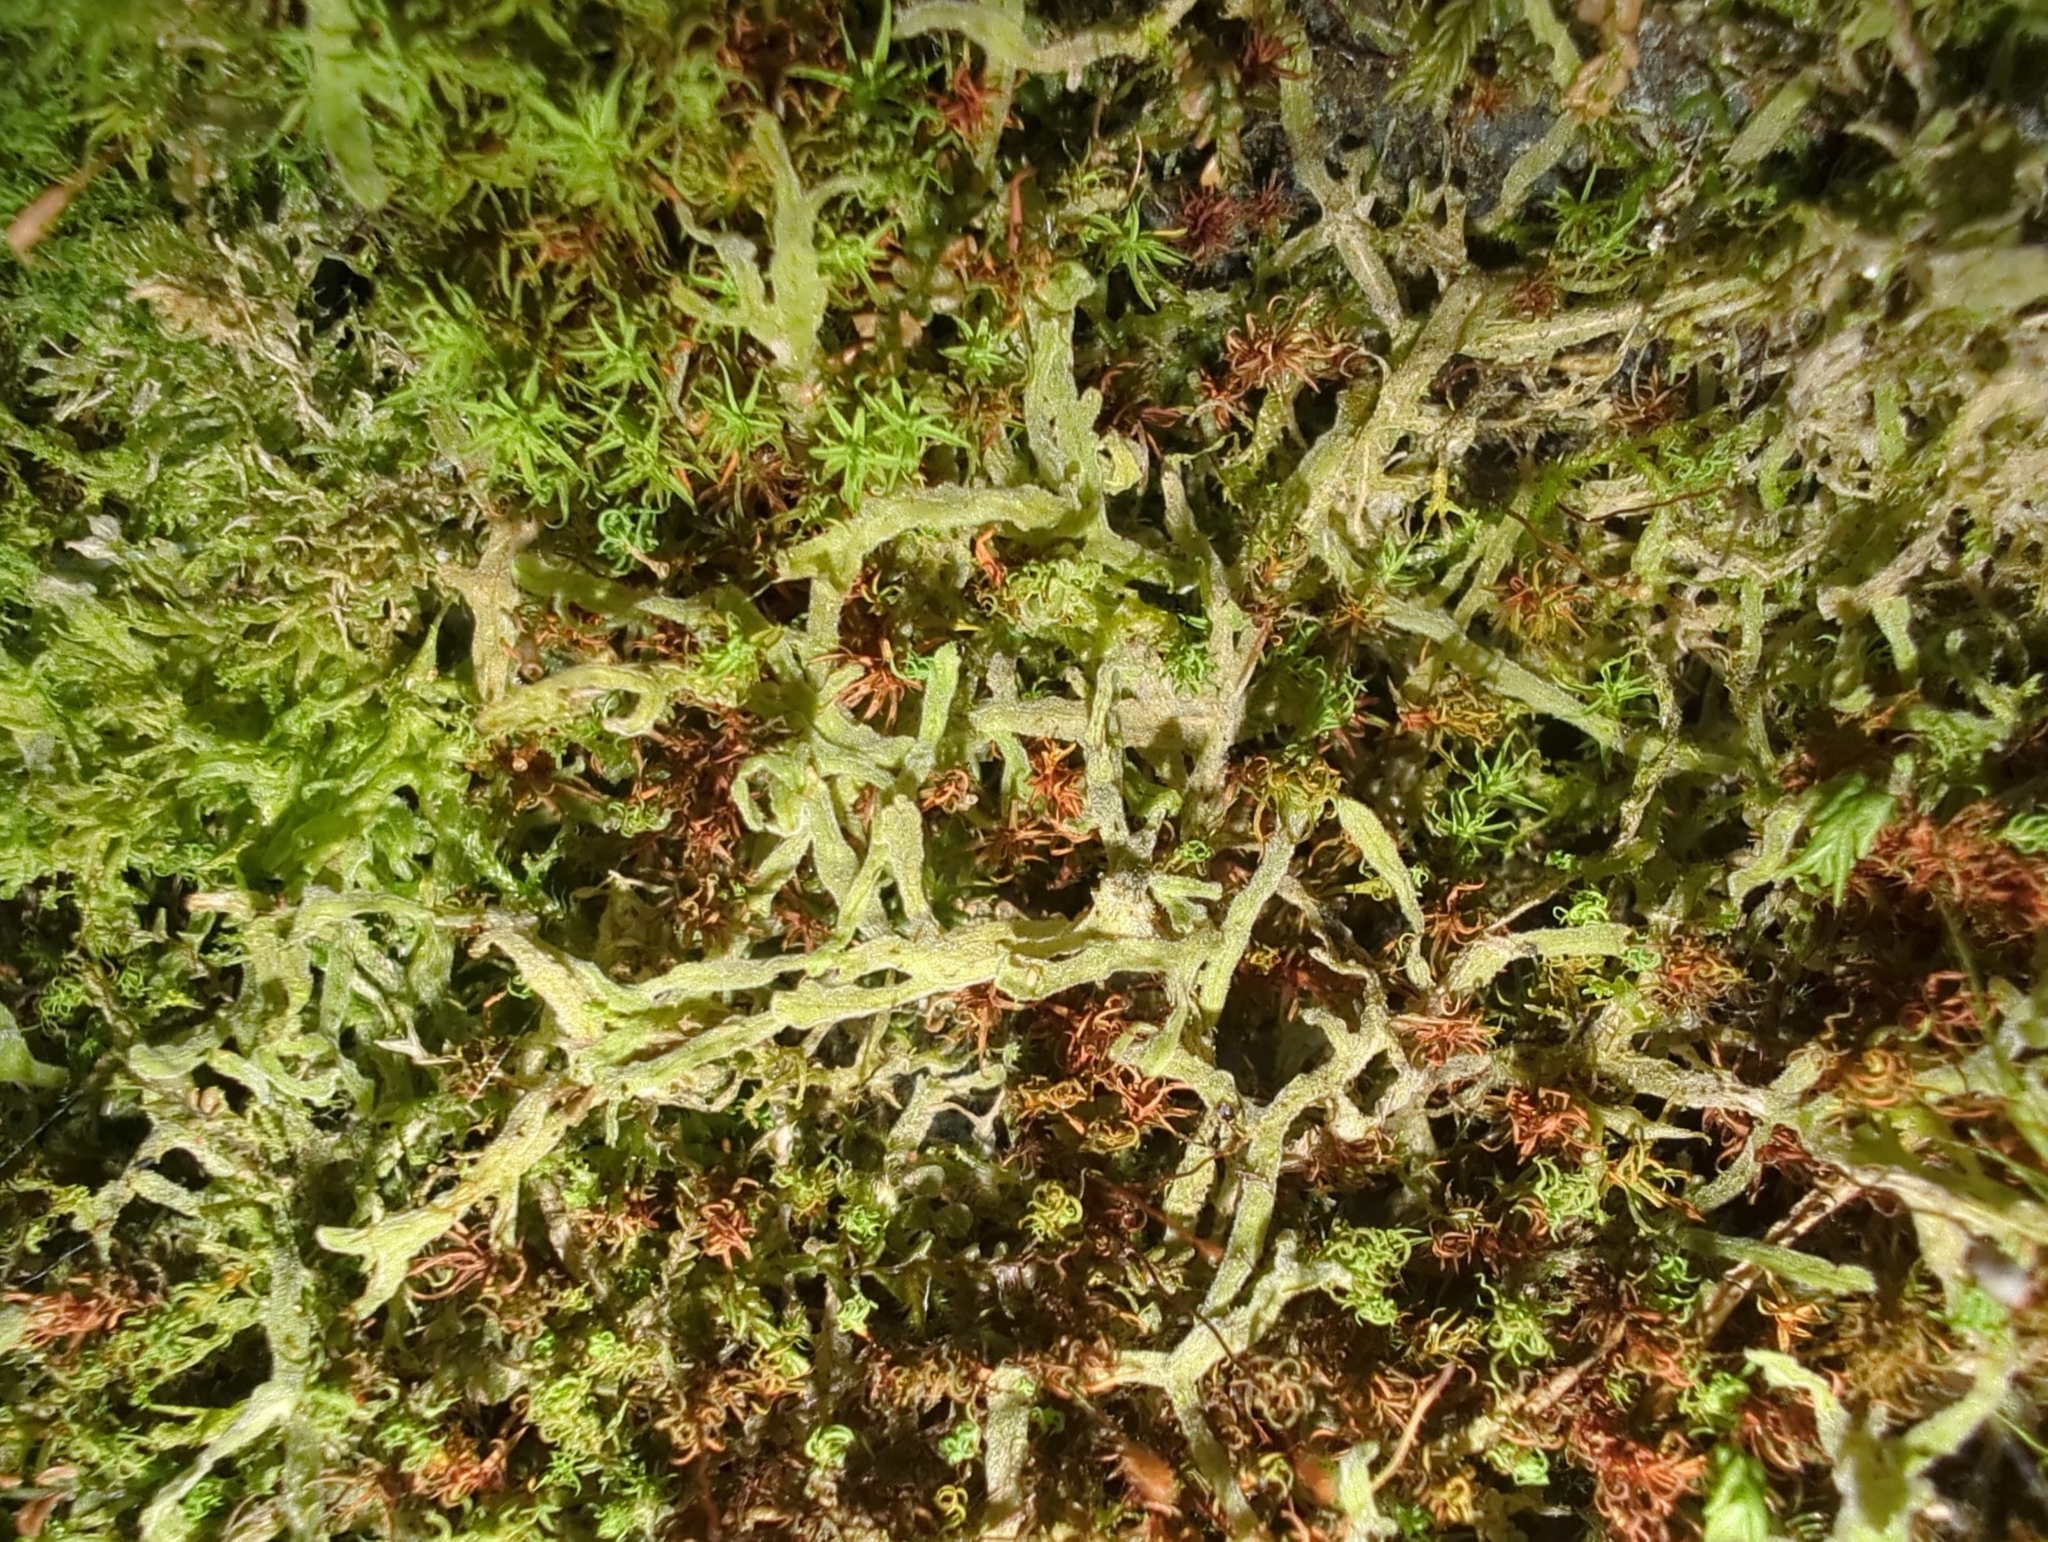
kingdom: Plantae
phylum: Marchantiophyta
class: Jungermanniopsida
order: Metzgeriales
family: Metzgeriaceae
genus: Metzgeria
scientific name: Metzgeria pubescens
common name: Downy veilwort
